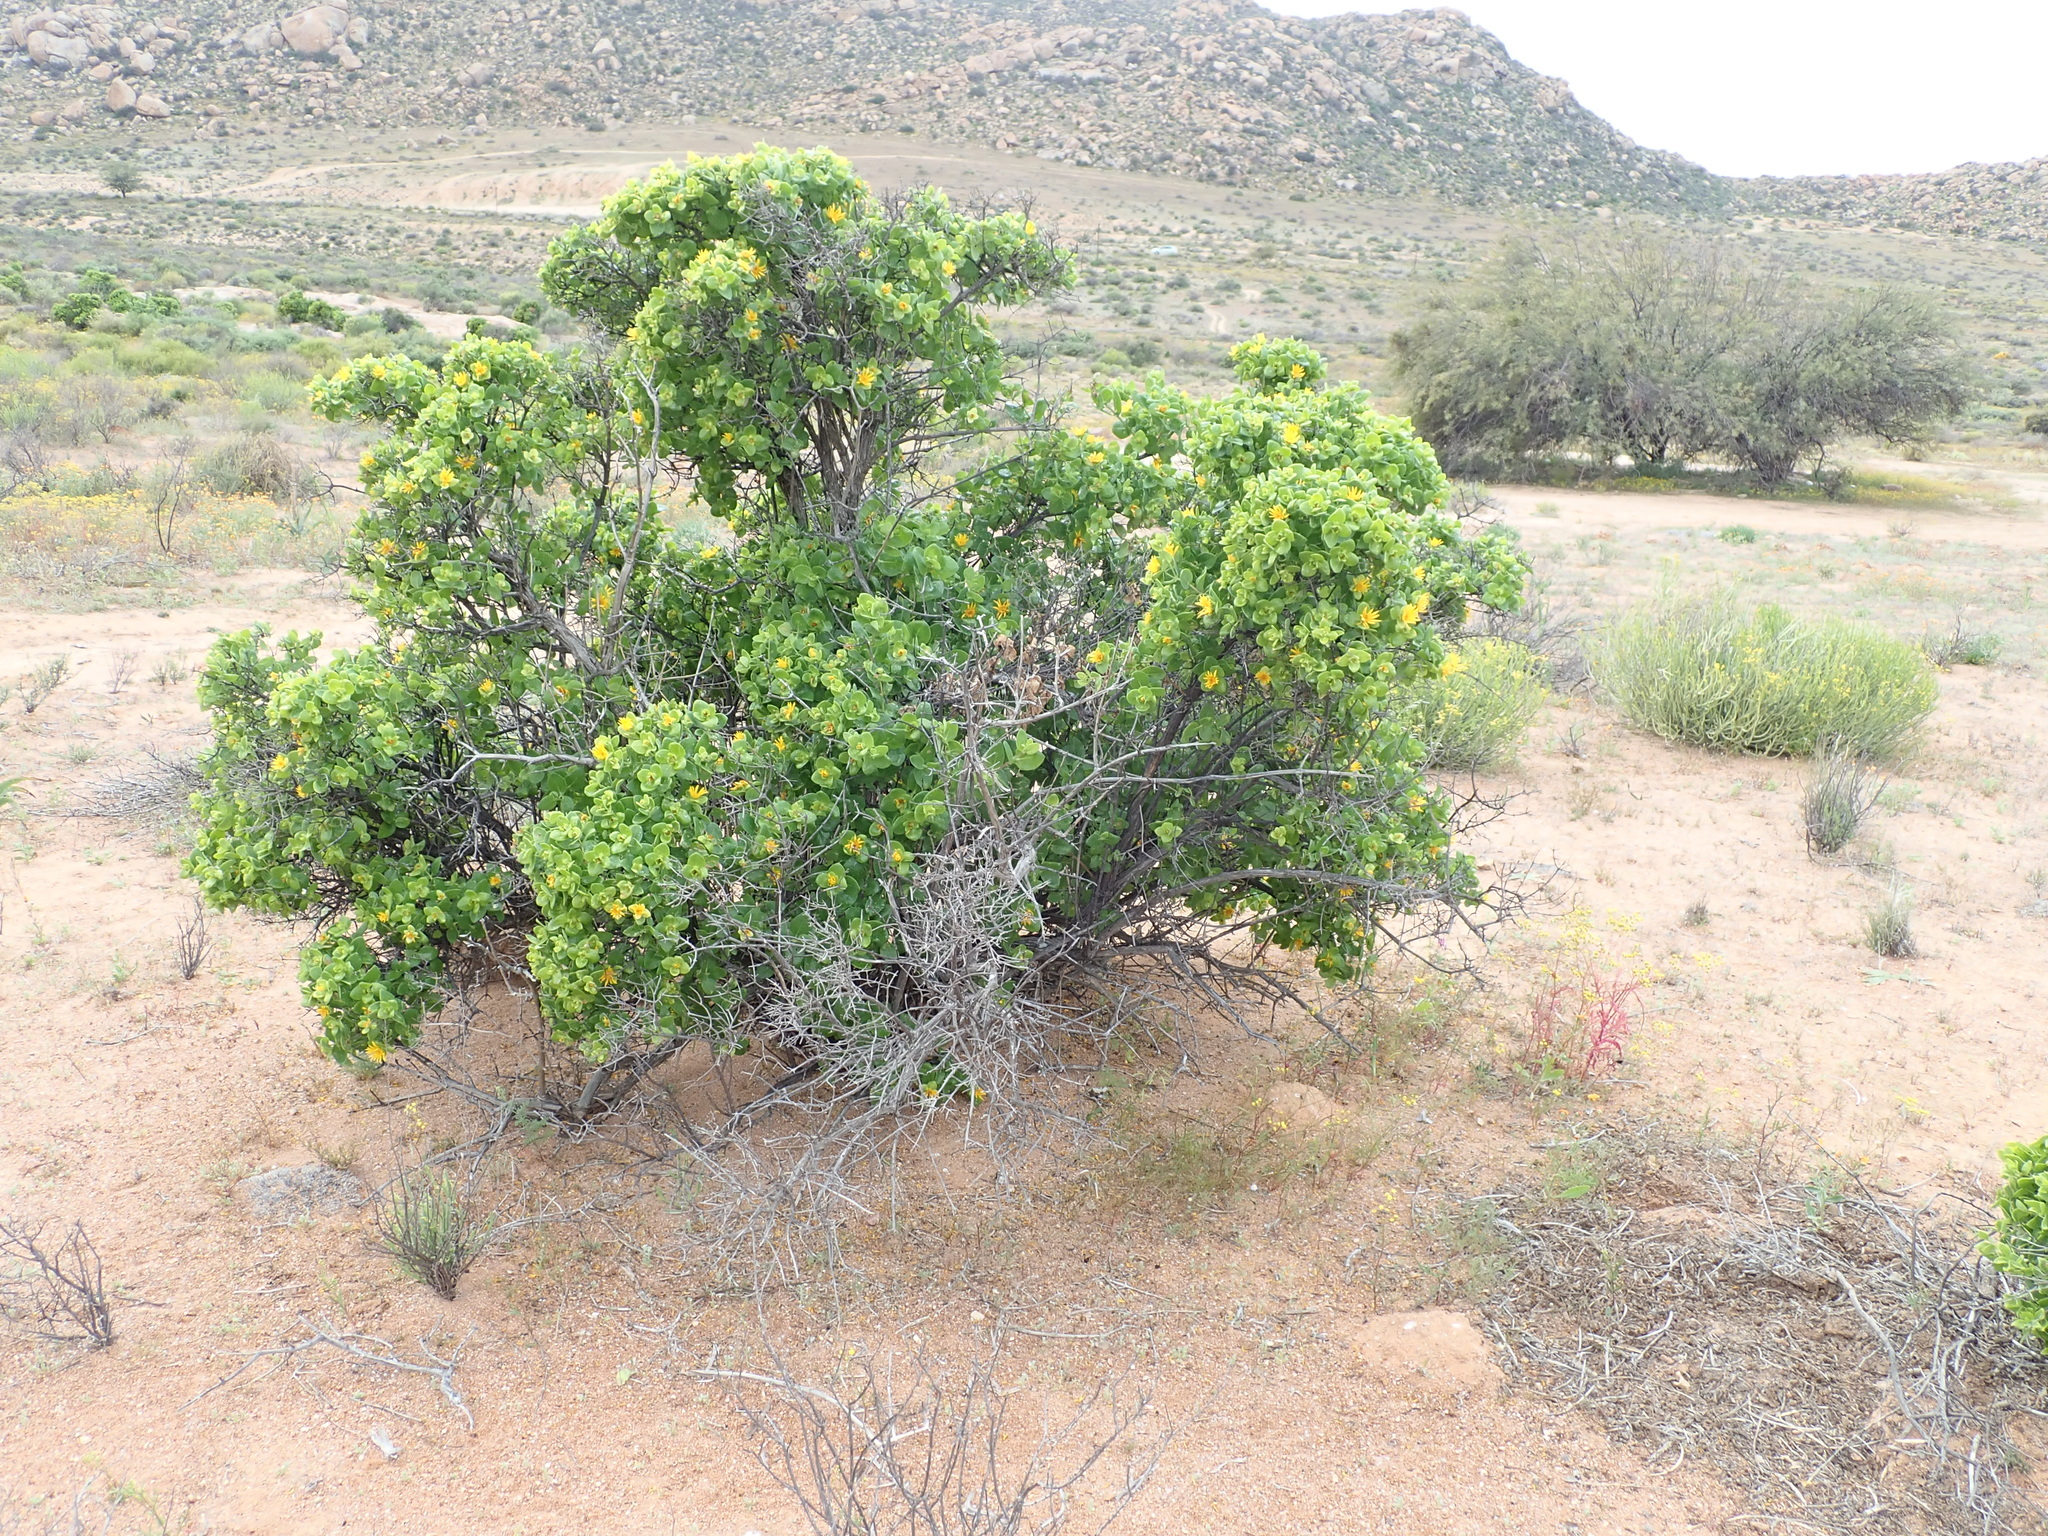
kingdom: Plantae
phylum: Tracheophyta
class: Magnoliopsida
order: Asterales
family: Asteraceae
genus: Didelta
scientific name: Didelta spinosa
